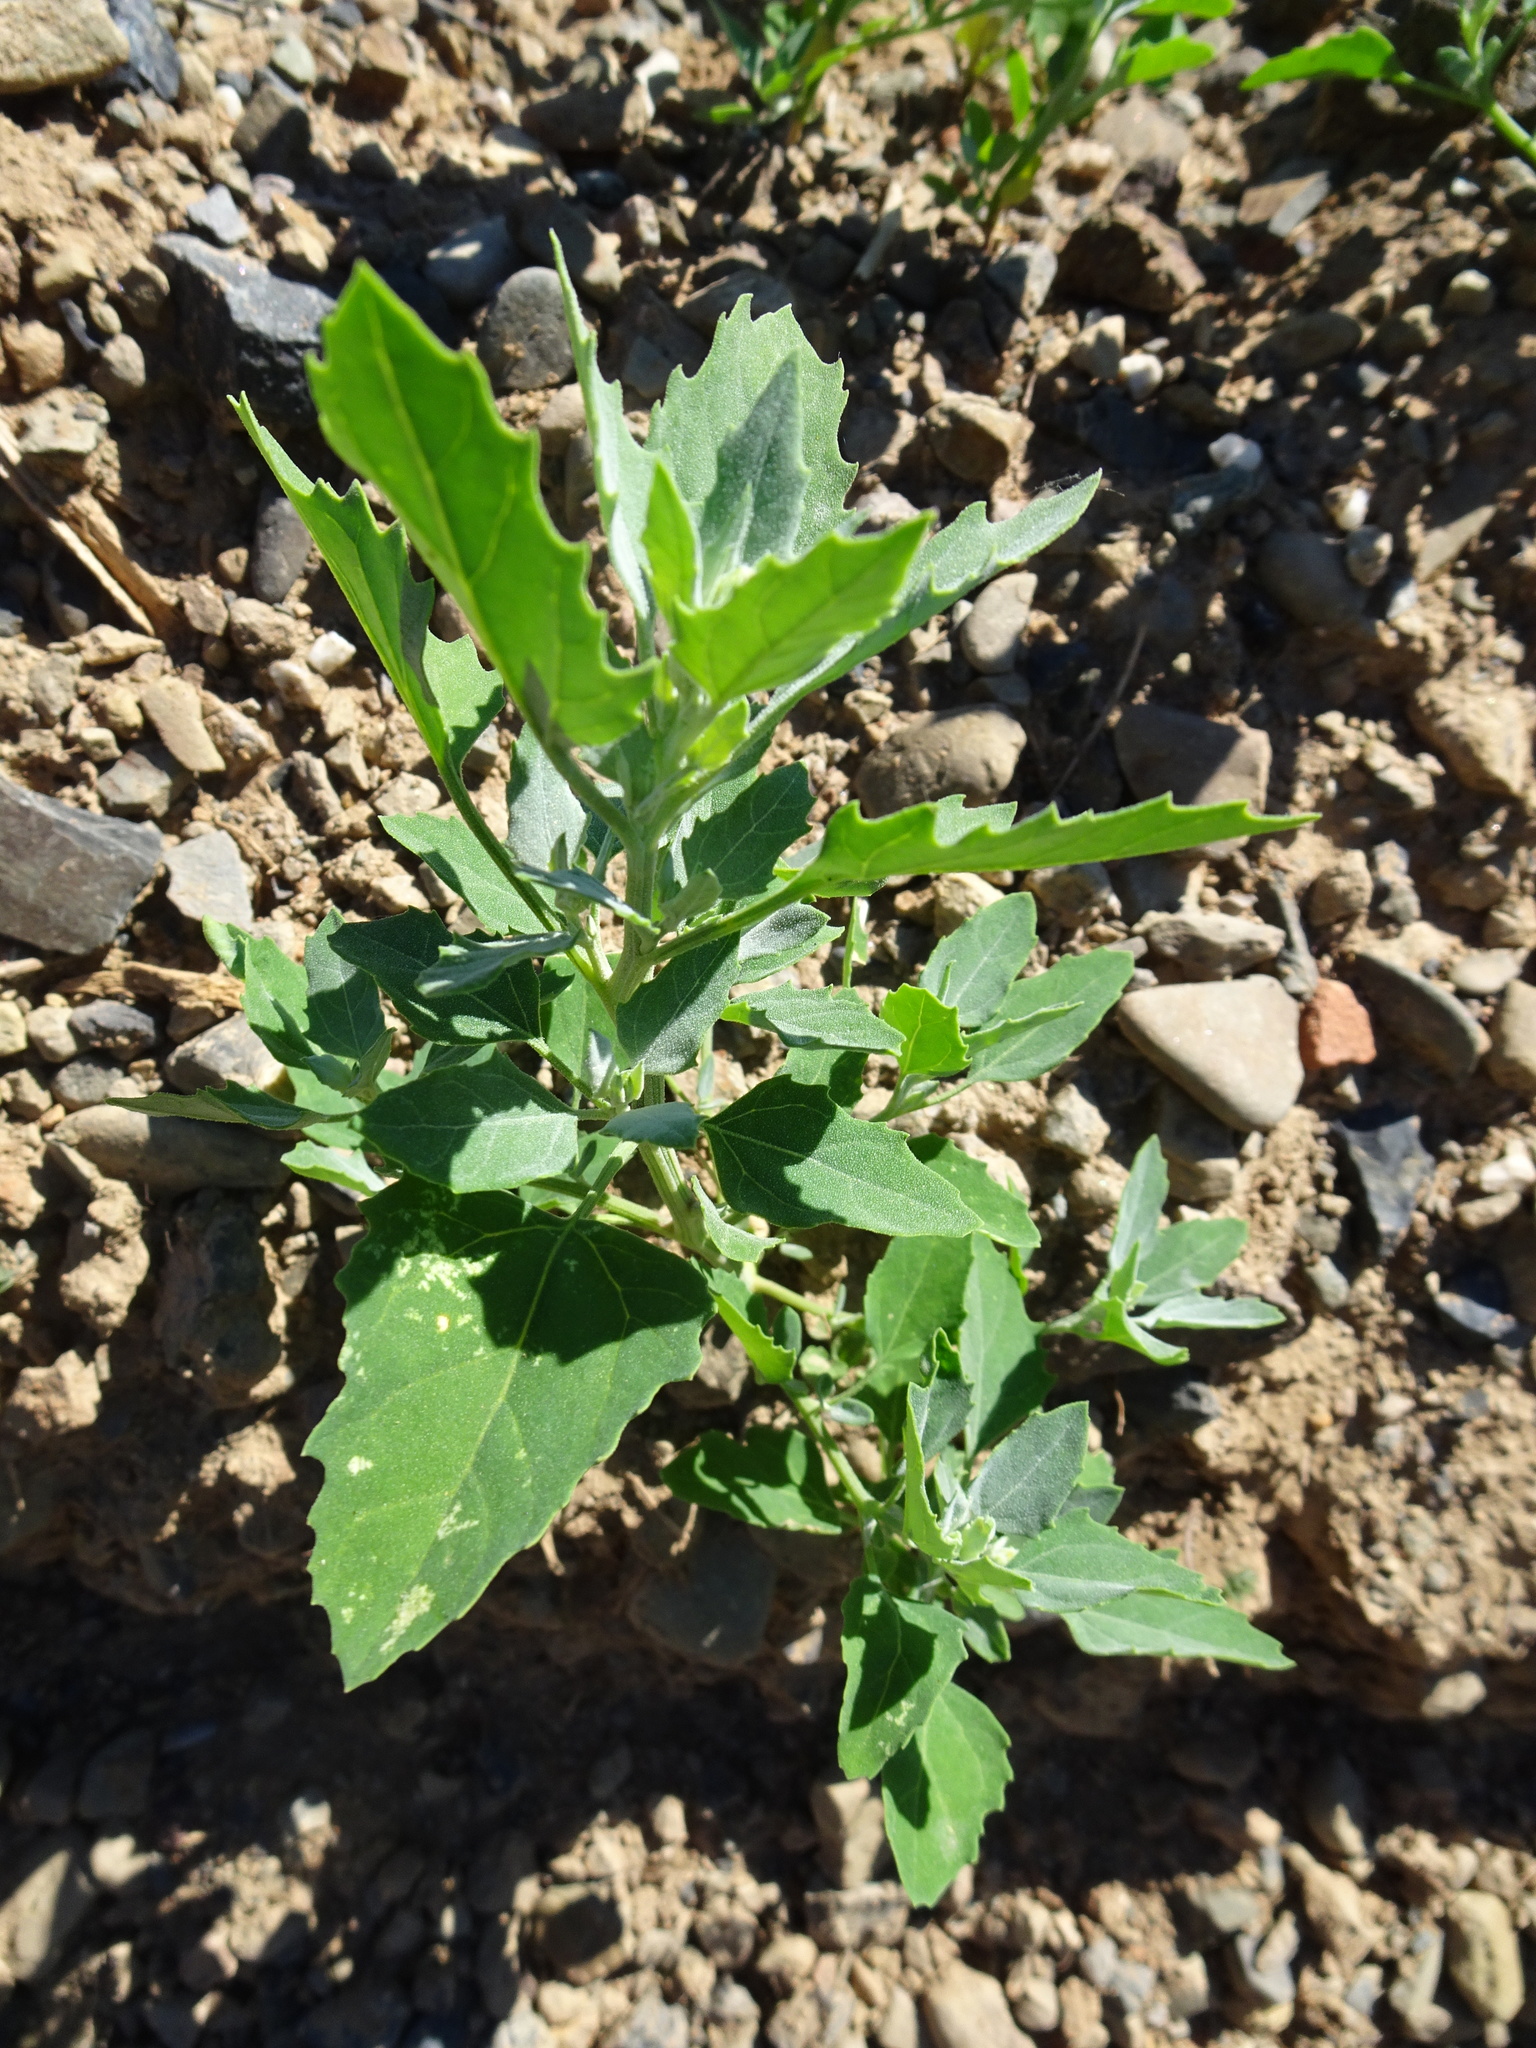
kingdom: Plantae
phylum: Tracheophyta
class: Magnoliopsida
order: Caryophyllales
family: Amaranthaceae
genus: Chenopodium
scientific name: Chenopodium album
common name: Fat-hen
